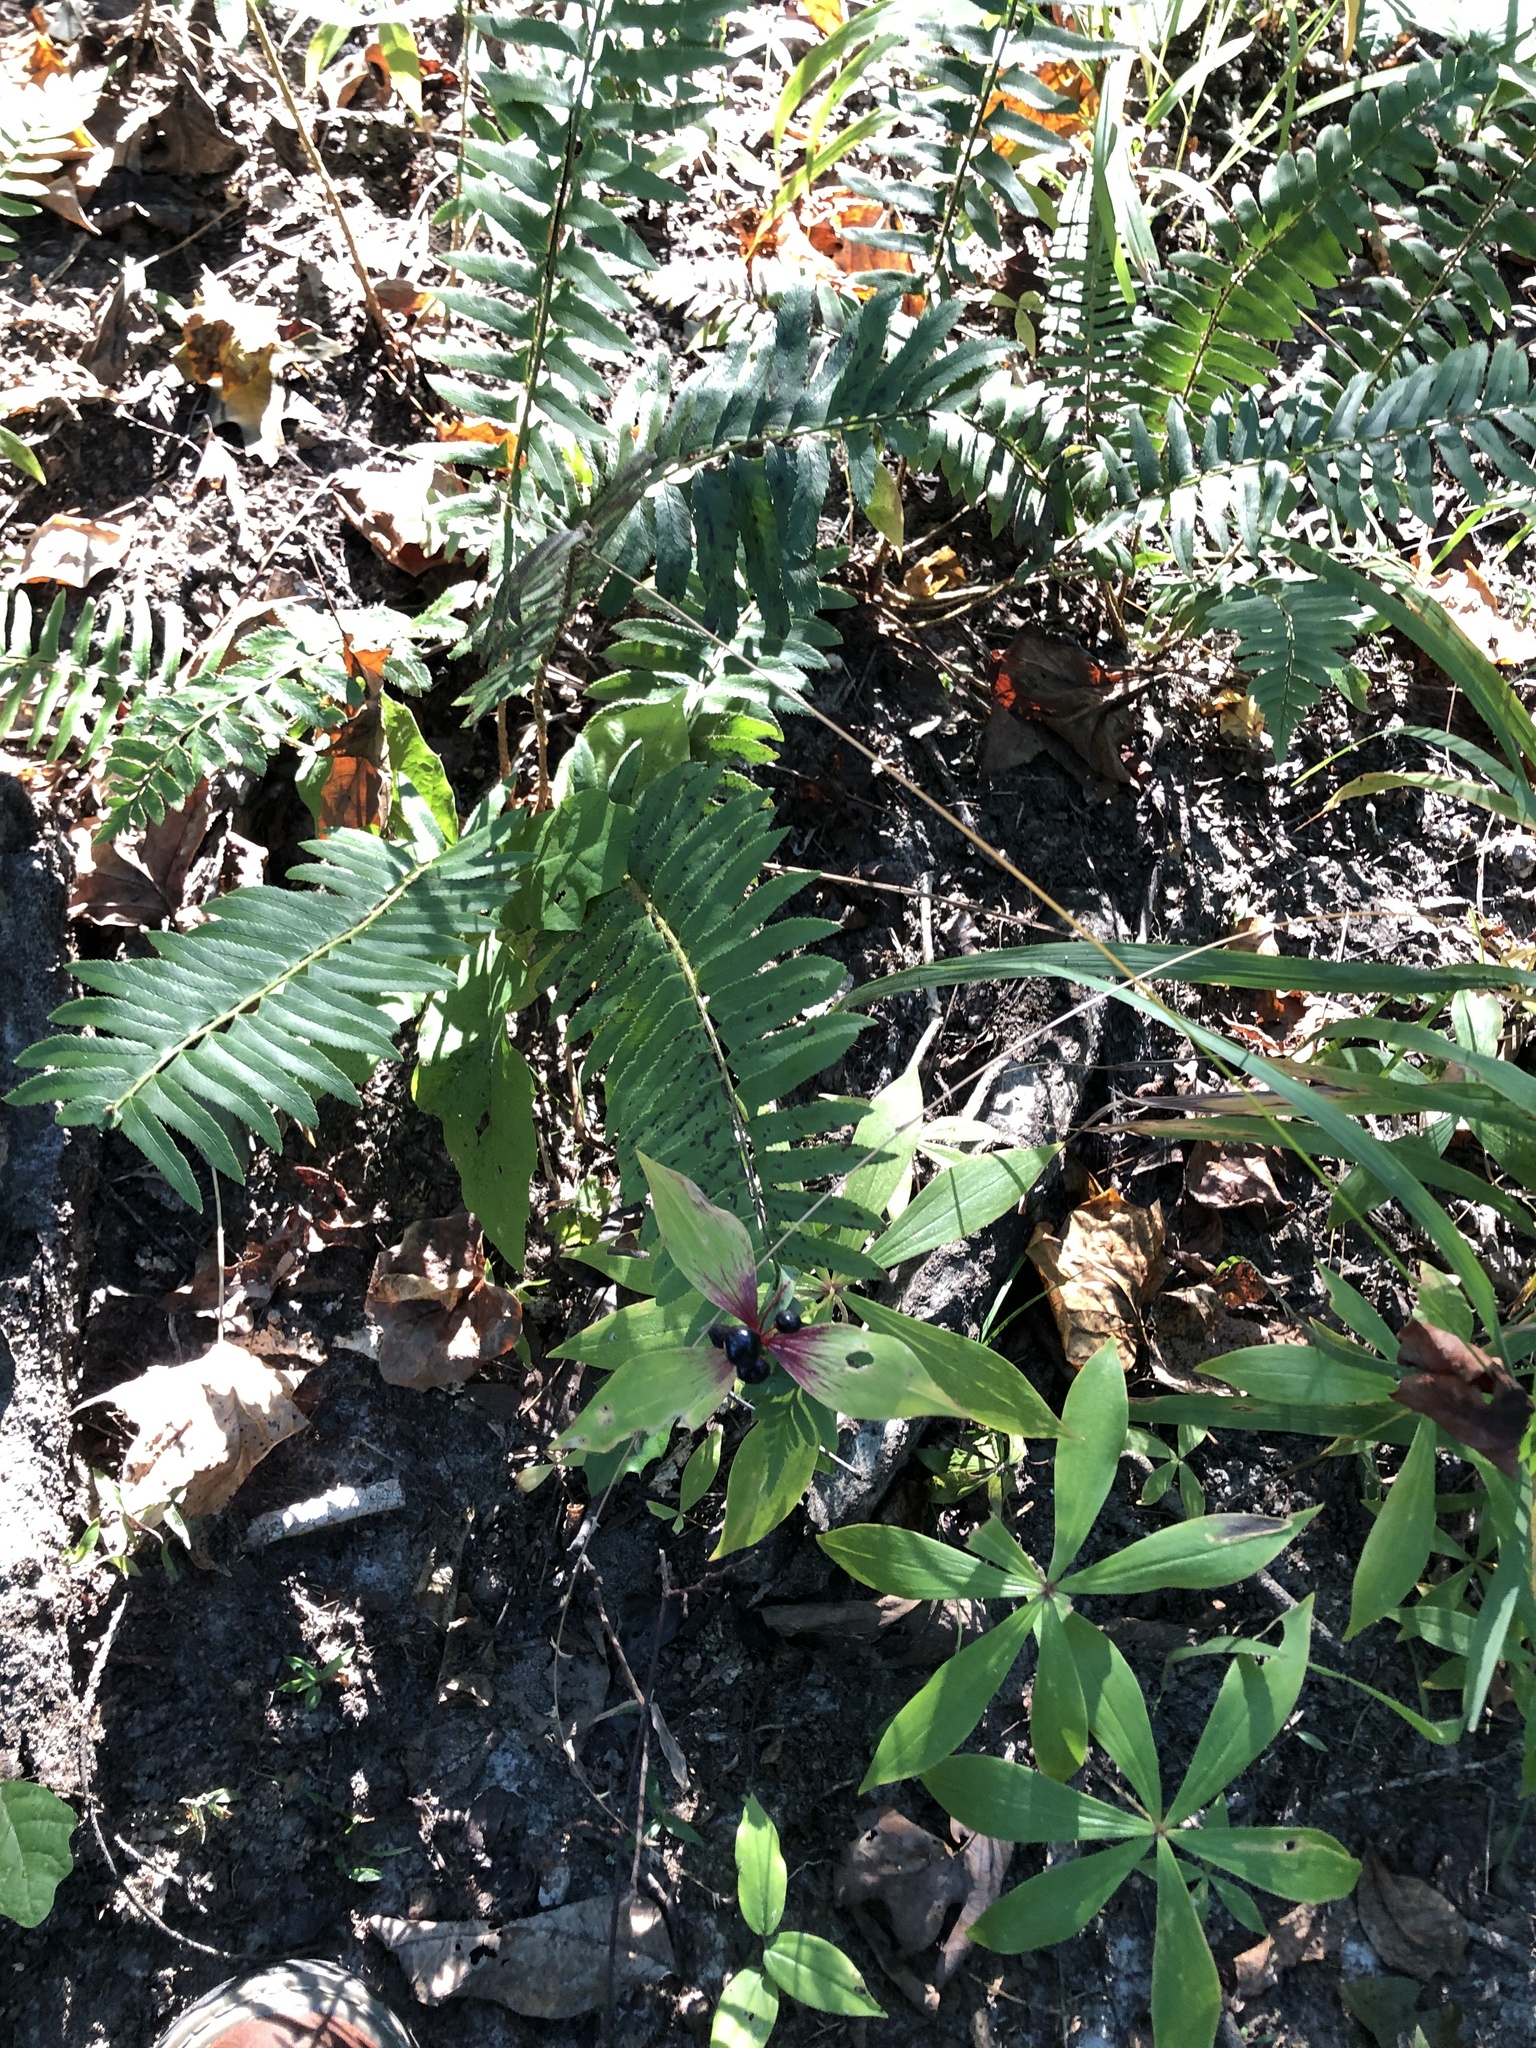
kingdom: Plantae
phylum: Tracheophyta
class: Liliopsida
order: Liliales
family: Liliaceae
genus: Medeola
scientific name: Medeola virginiana
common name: Indian cucumber-root
